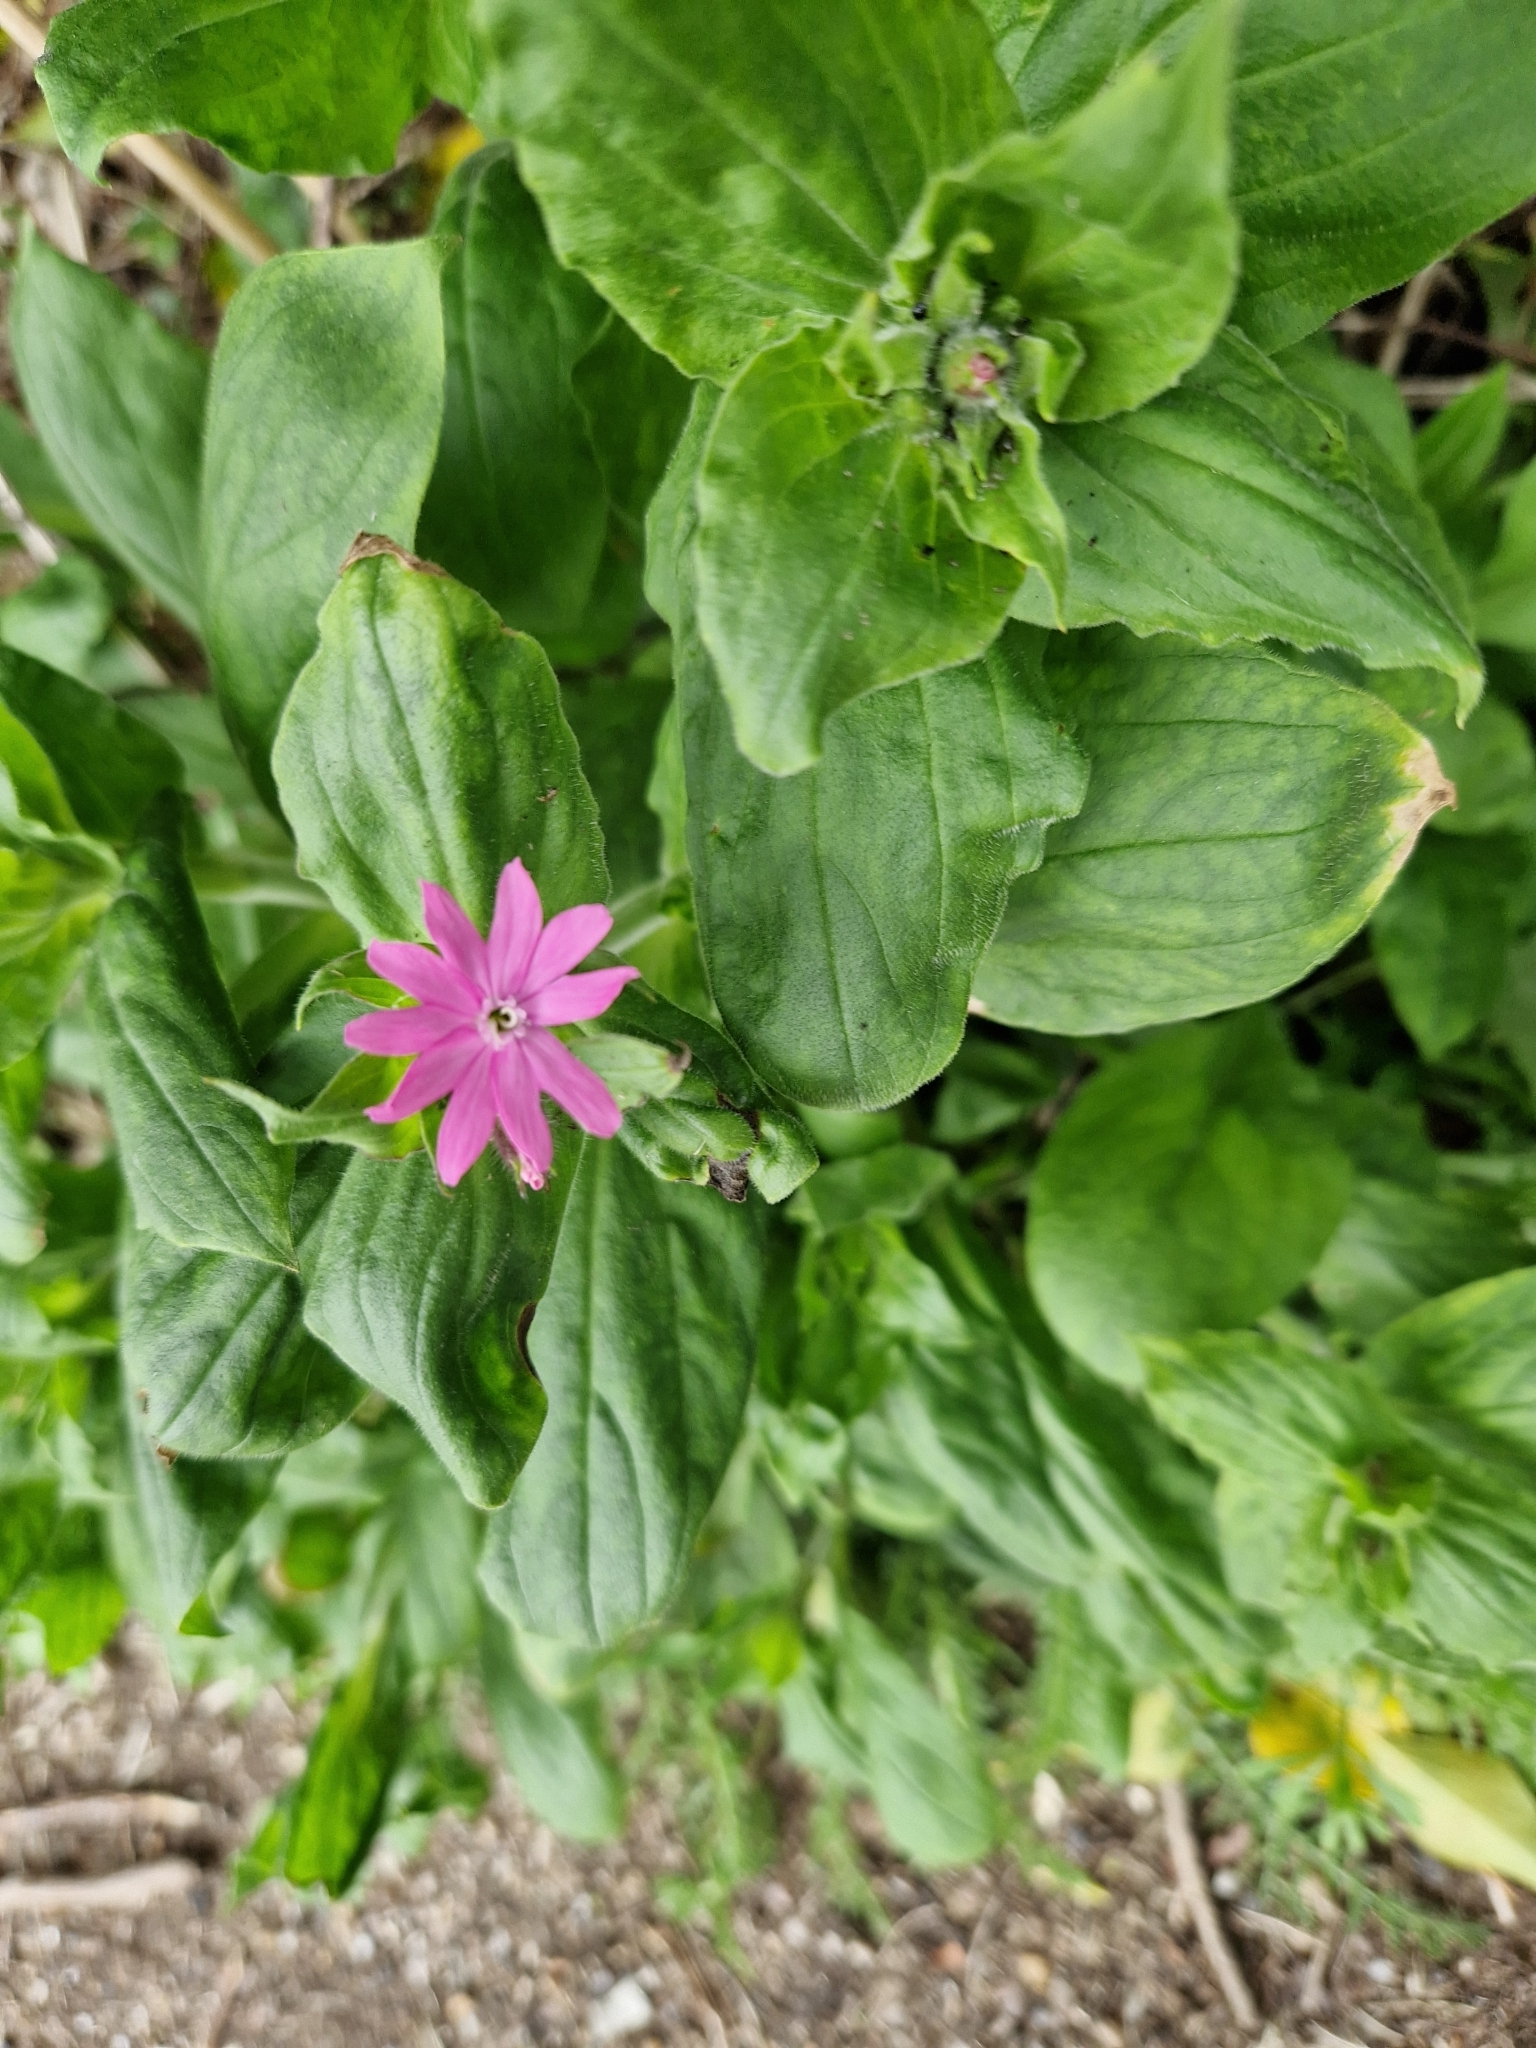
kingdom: Plantae
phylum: Tracheophyta
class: Magnoliopsida
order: Caryophyllales
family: Caryophyllaceae
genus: Silene
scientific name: Silene dioica
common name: Red campion
